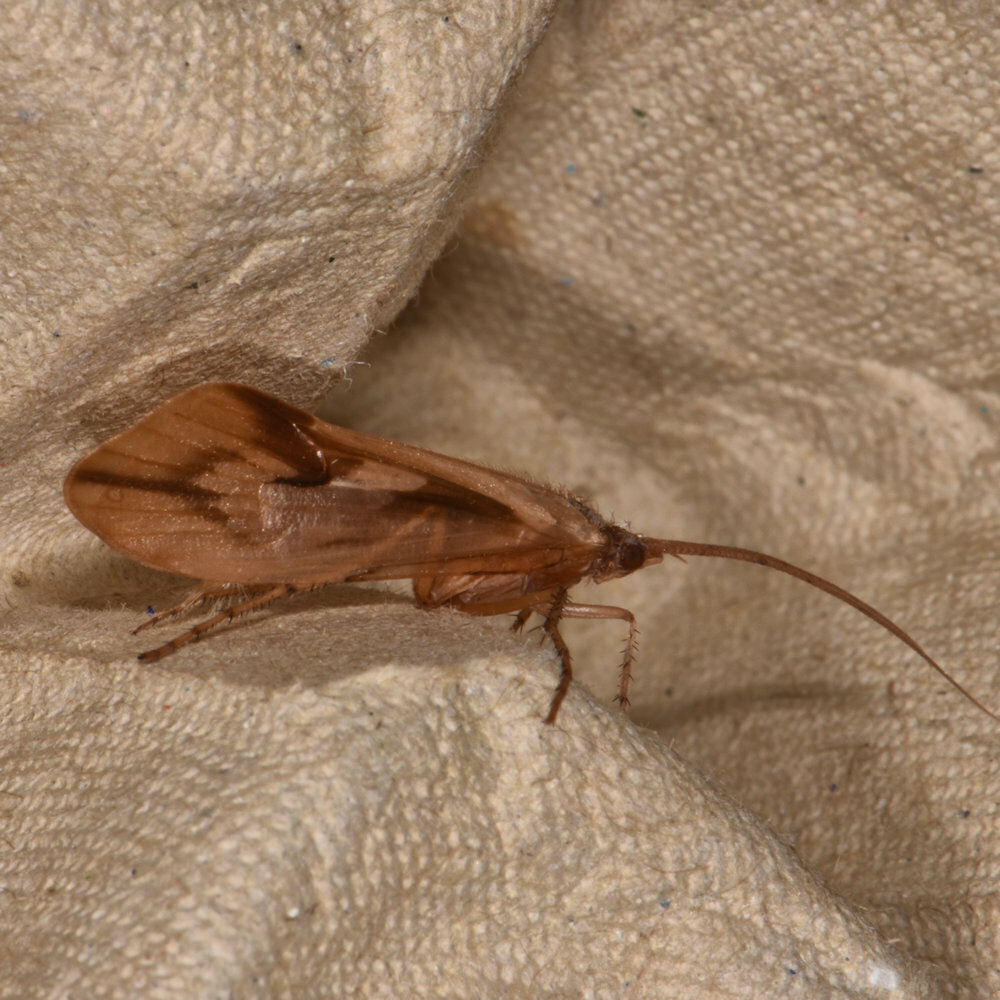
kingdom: Animalia
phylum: Arthropoda
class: Insecta
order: Trichoptera
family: Limnephilidae
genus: Platycentropus
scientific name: Platycentropus radiatus
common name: Chocolate-and-cream sedge
